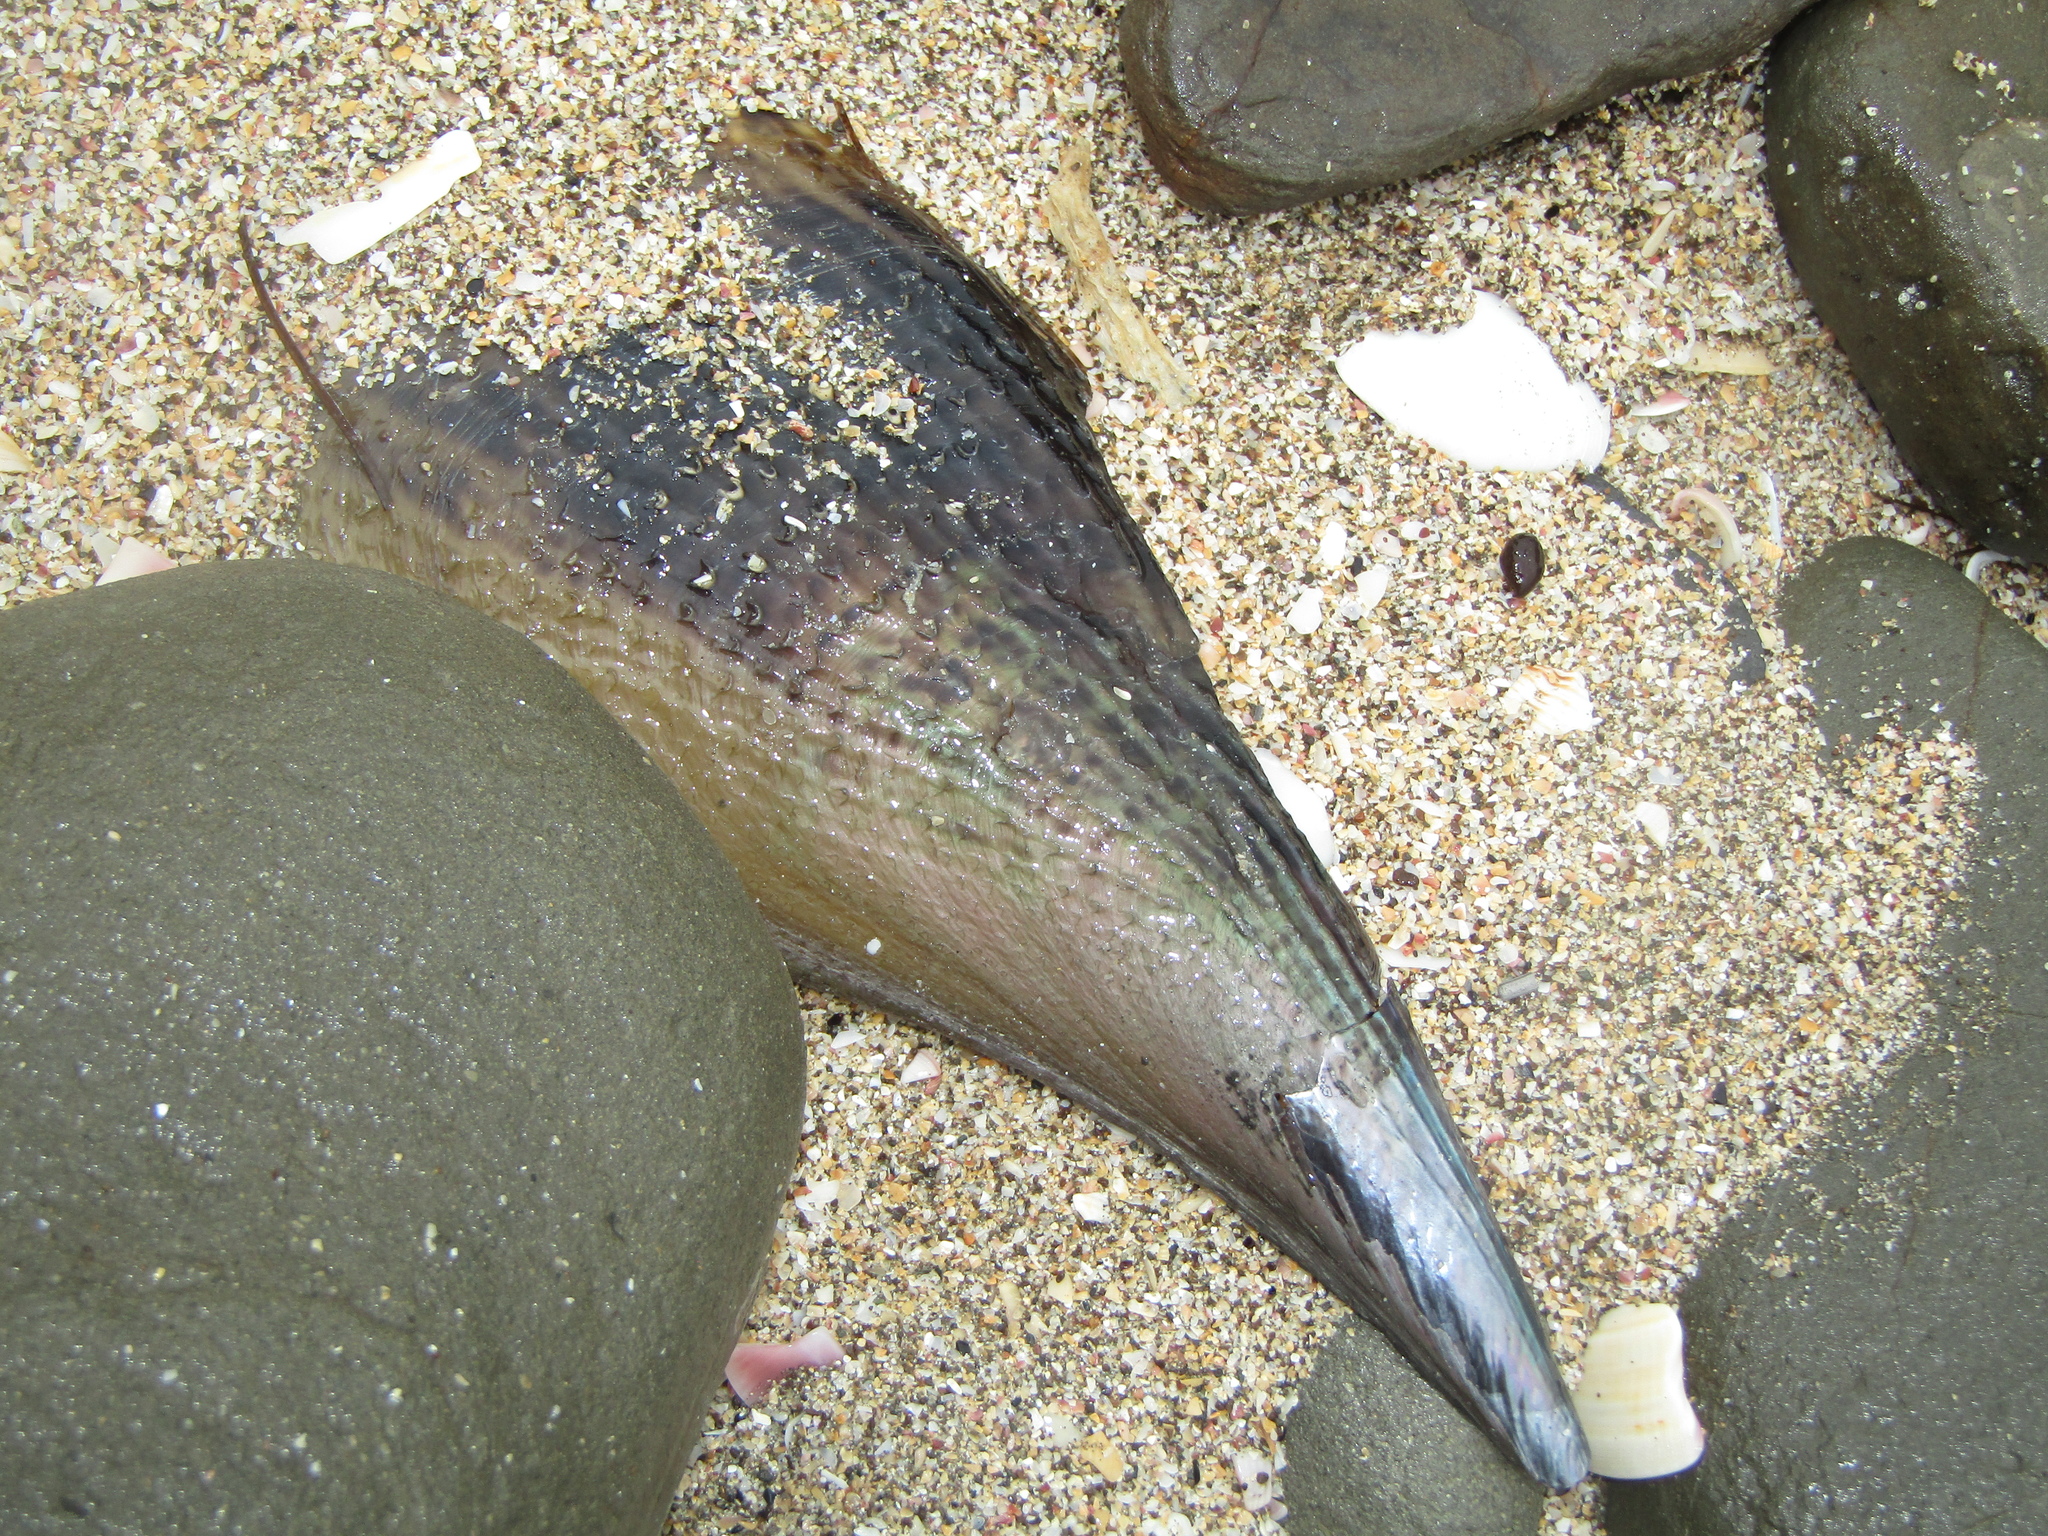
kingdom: Animalia
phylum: Mollusca
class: Bivalvia
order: Ostreida
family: Pinnidae
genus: Atrina
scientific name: Atrina zelandica
